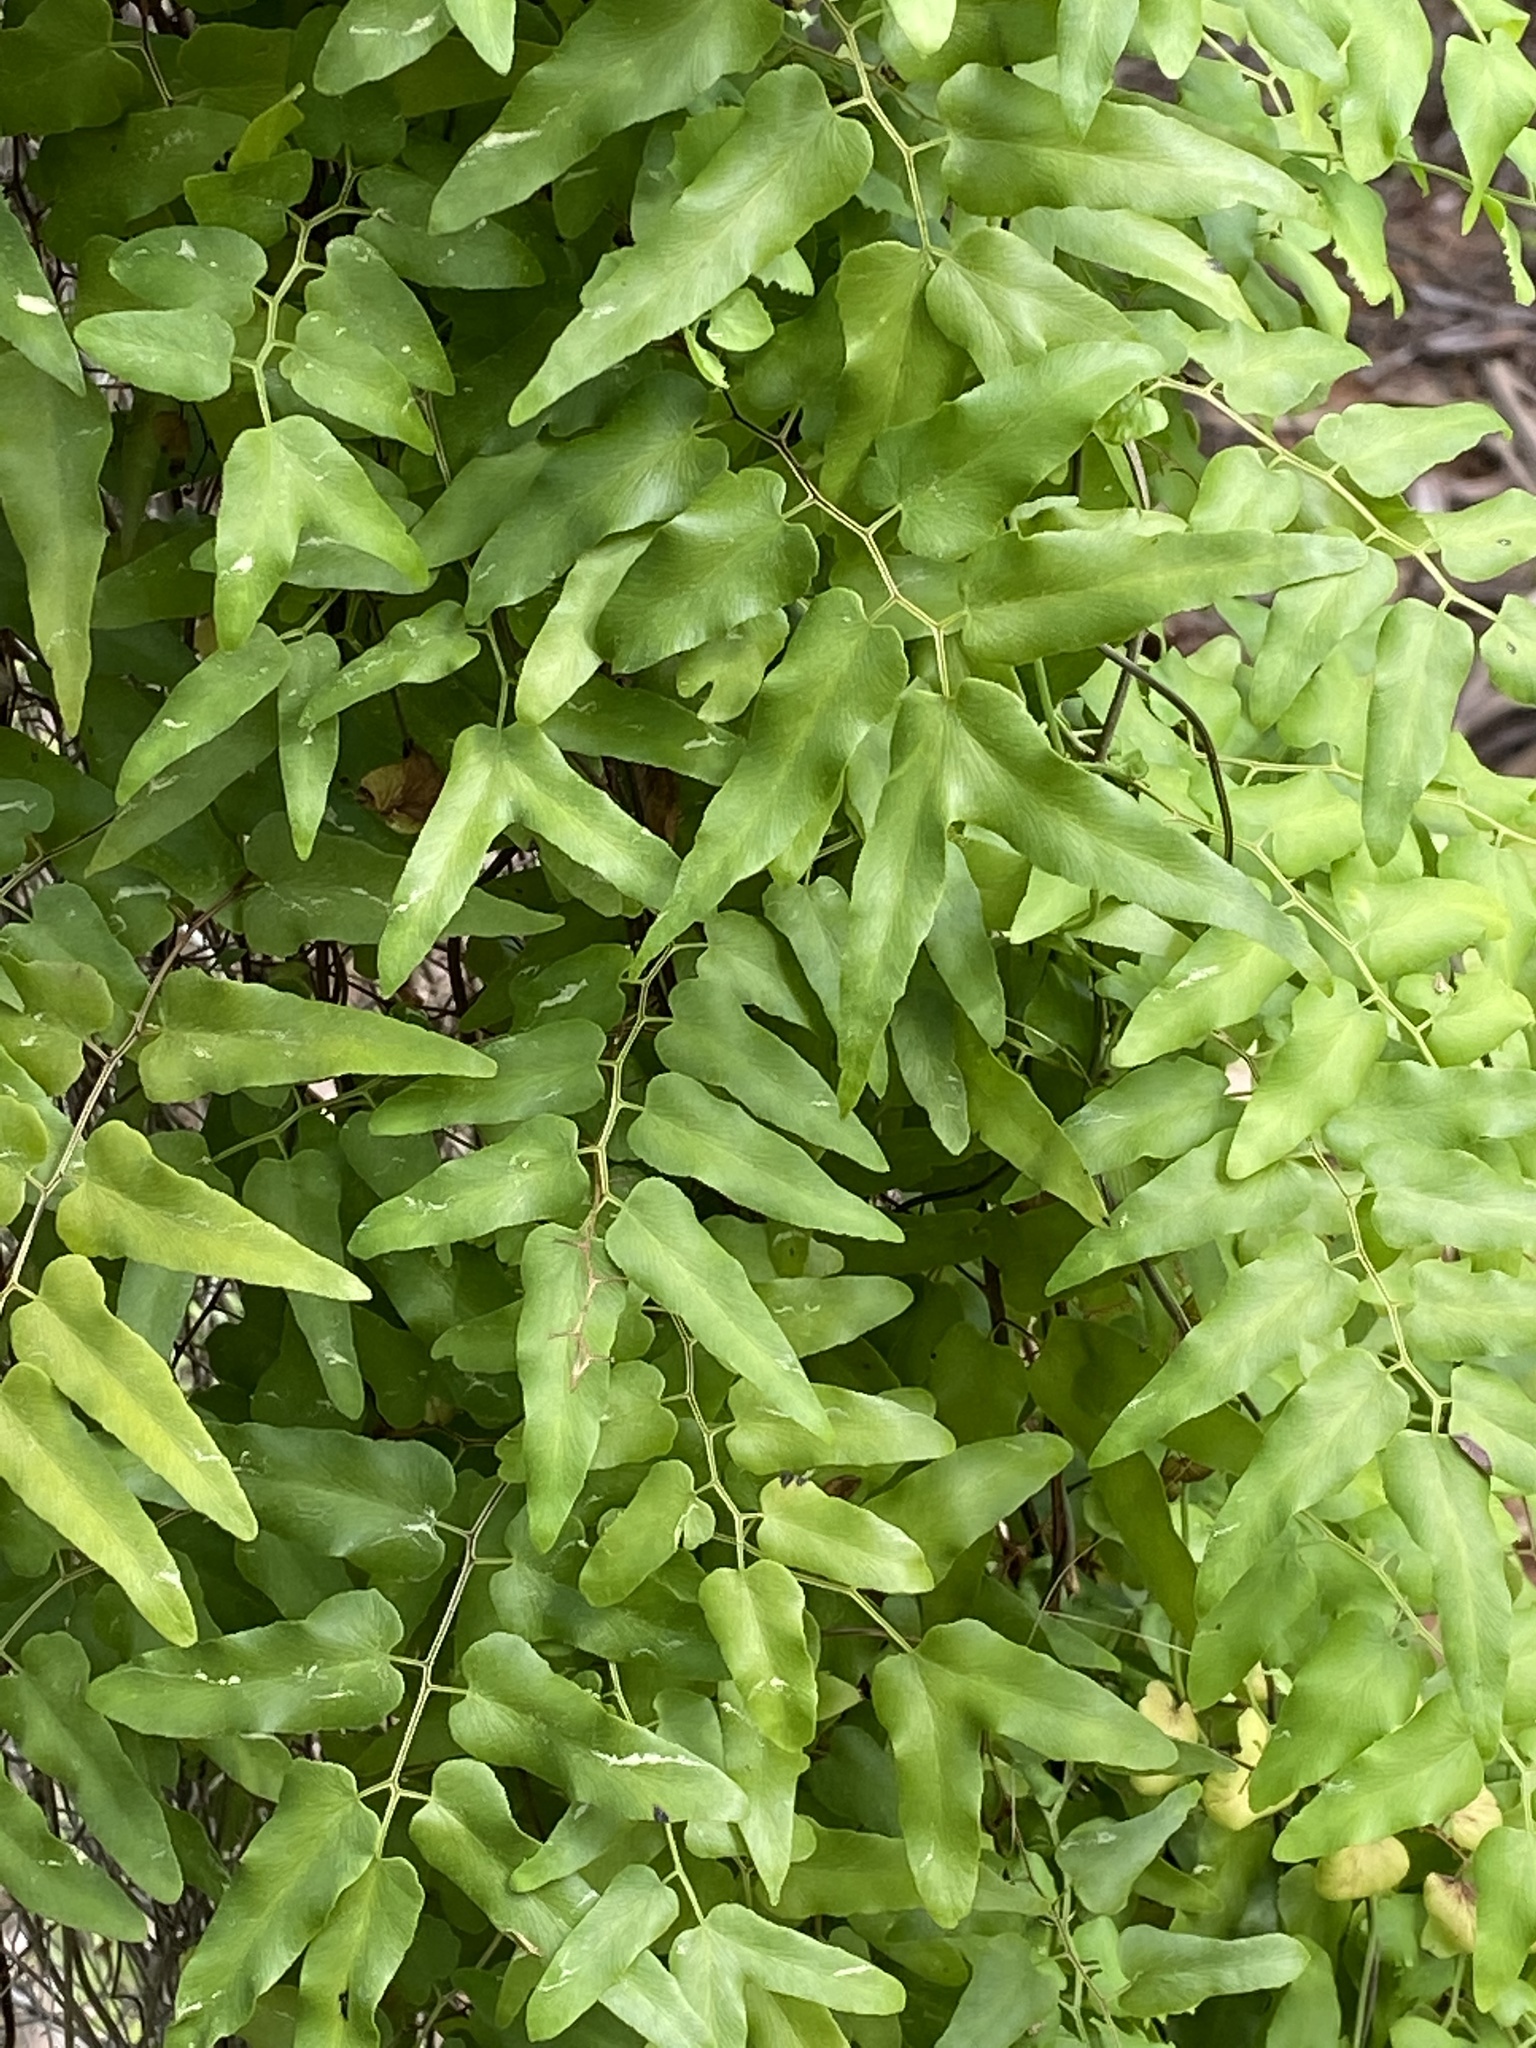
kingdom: Plantae
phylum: Tracheophyta
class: Polypodiopsida
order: Schizaeales
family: Lygodiaceae
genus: Lygodium
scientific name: Lygodium microphyllum
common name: Small-leaf climbing fern
